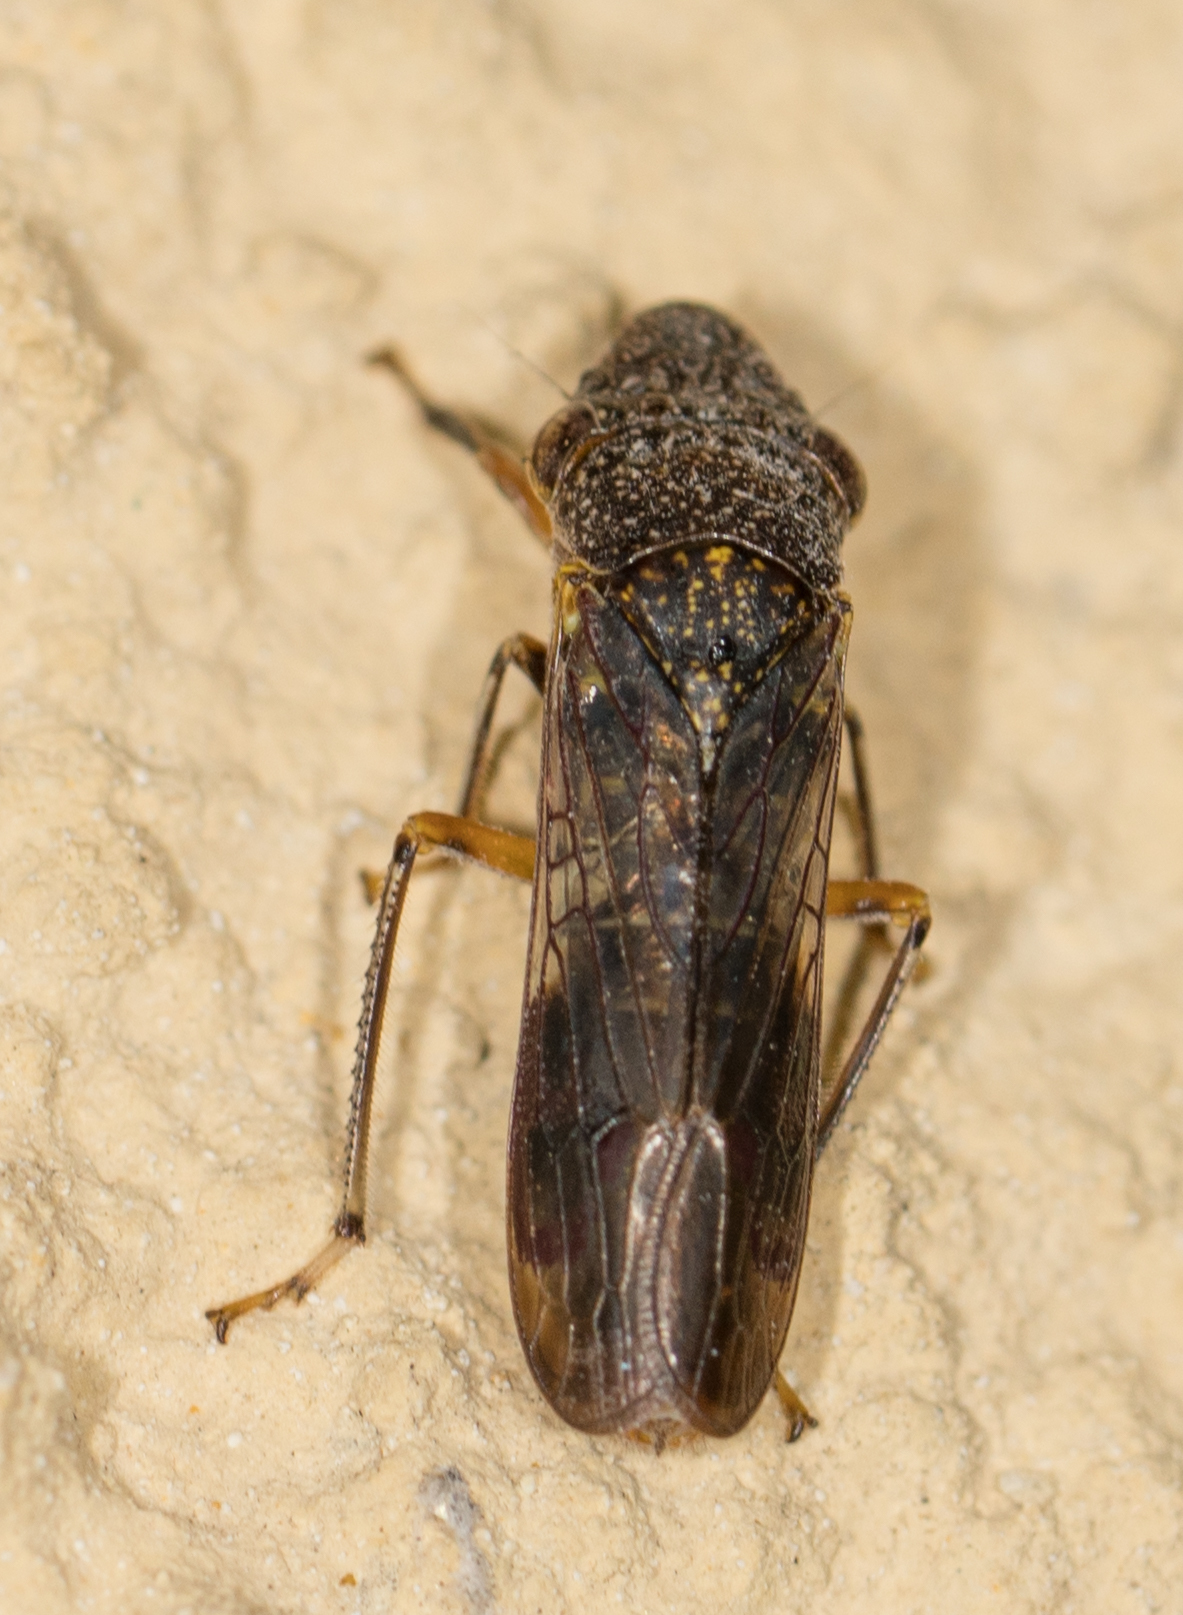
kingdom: Animalia
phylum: Arthropoda
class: Insecta
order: Hemiptera
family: Cicadellidae
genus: Homalodisca
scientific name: Homalodisca vitripennis
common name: Glassy-winged sharpshooter
